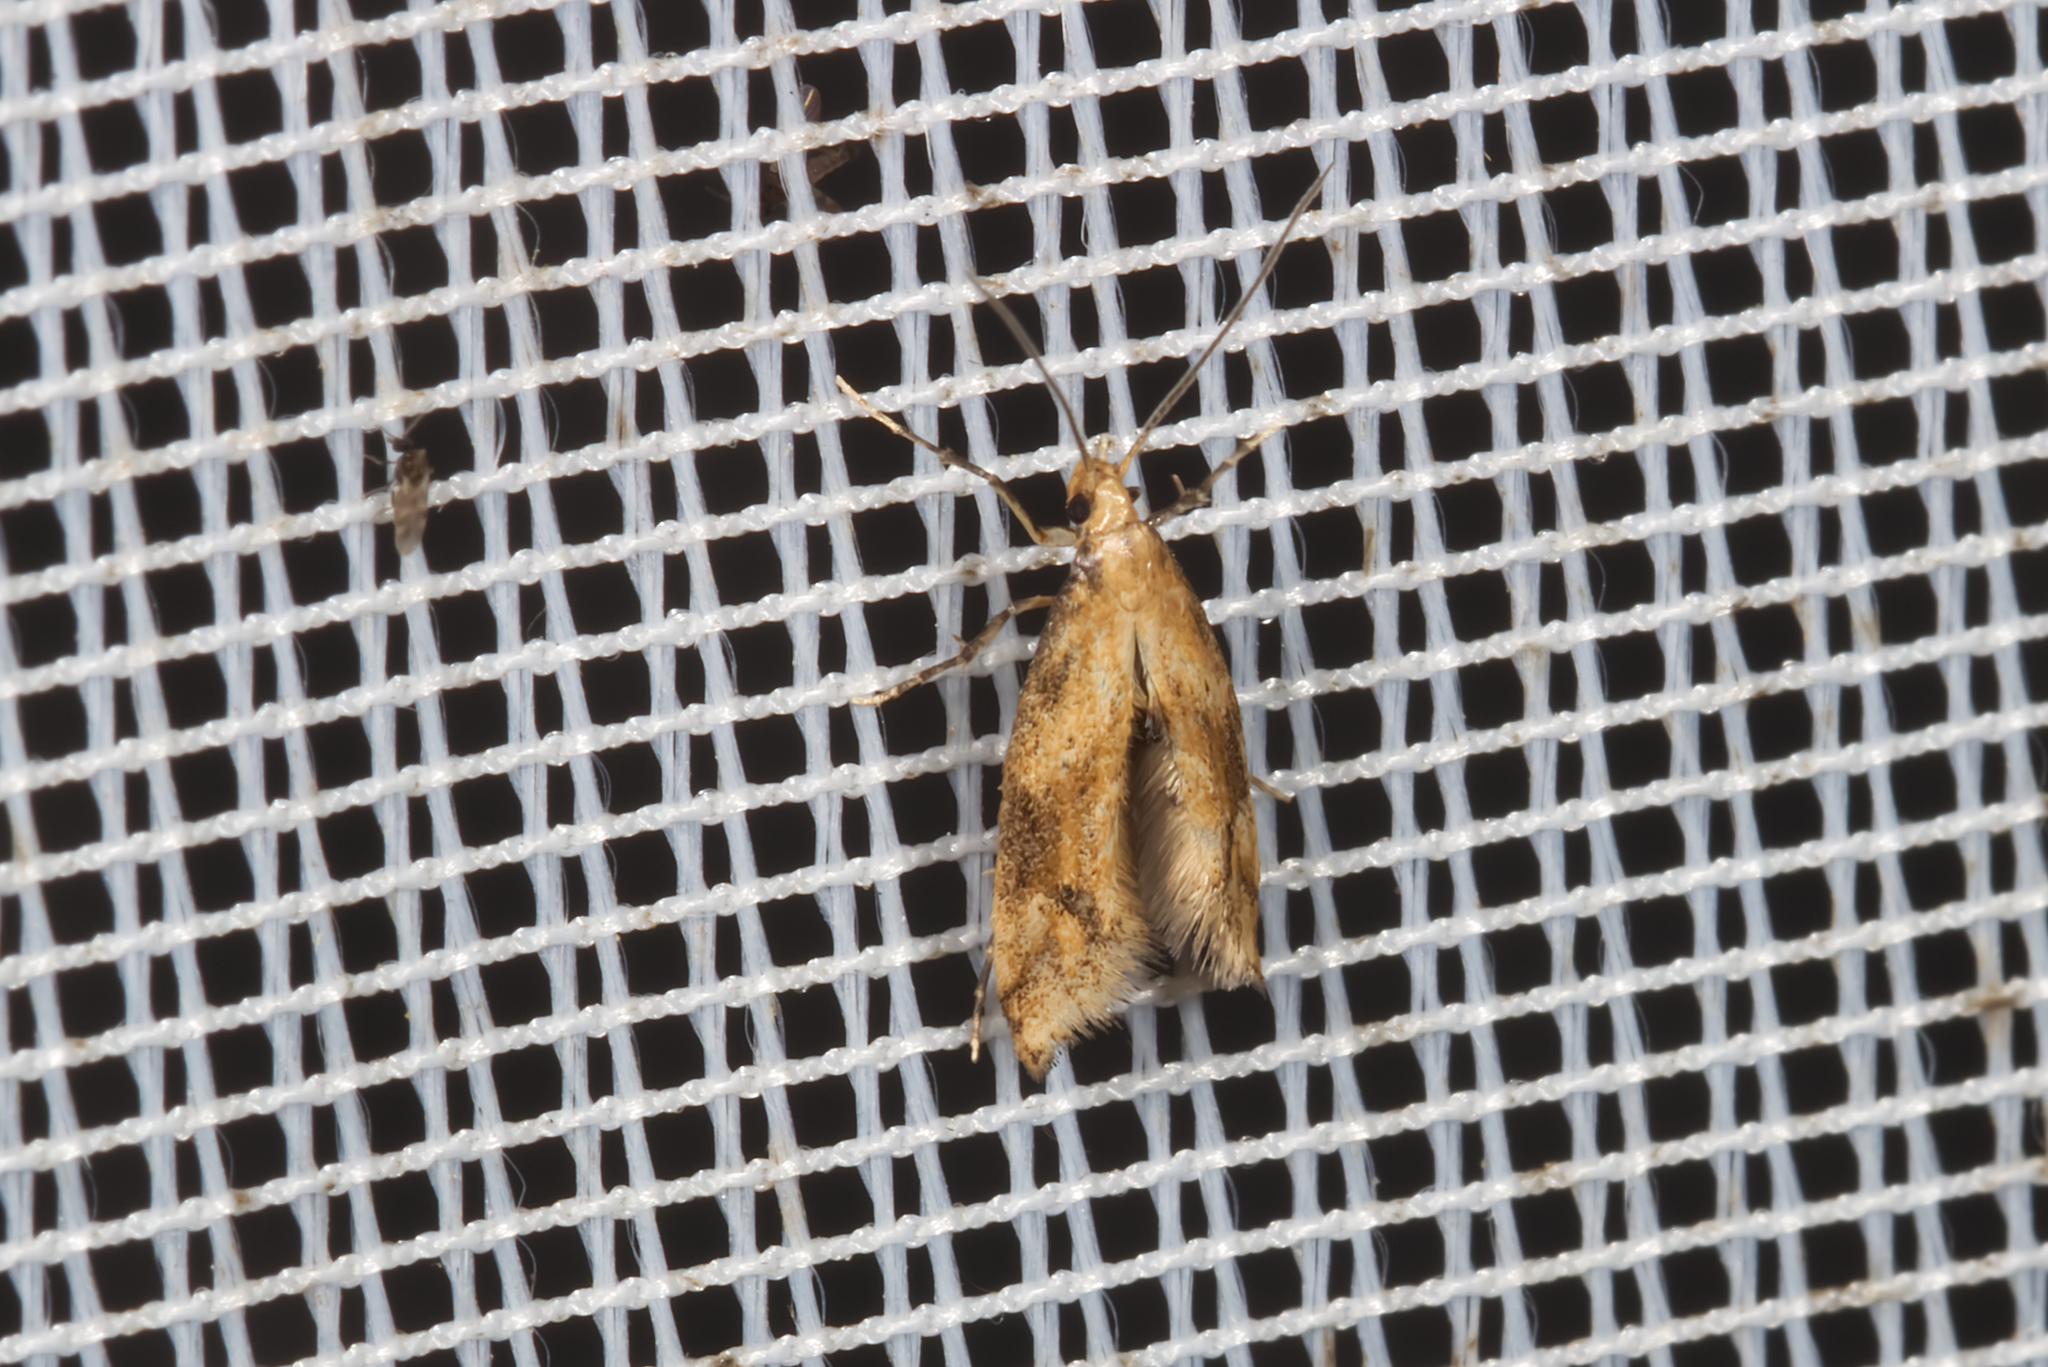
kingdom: Animalia
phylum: Arthropoda
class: Insecta
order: Lepidoptera
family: Gelechiidae
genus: Brachmia
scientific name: Brachmia blandella
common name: Gorse crest
